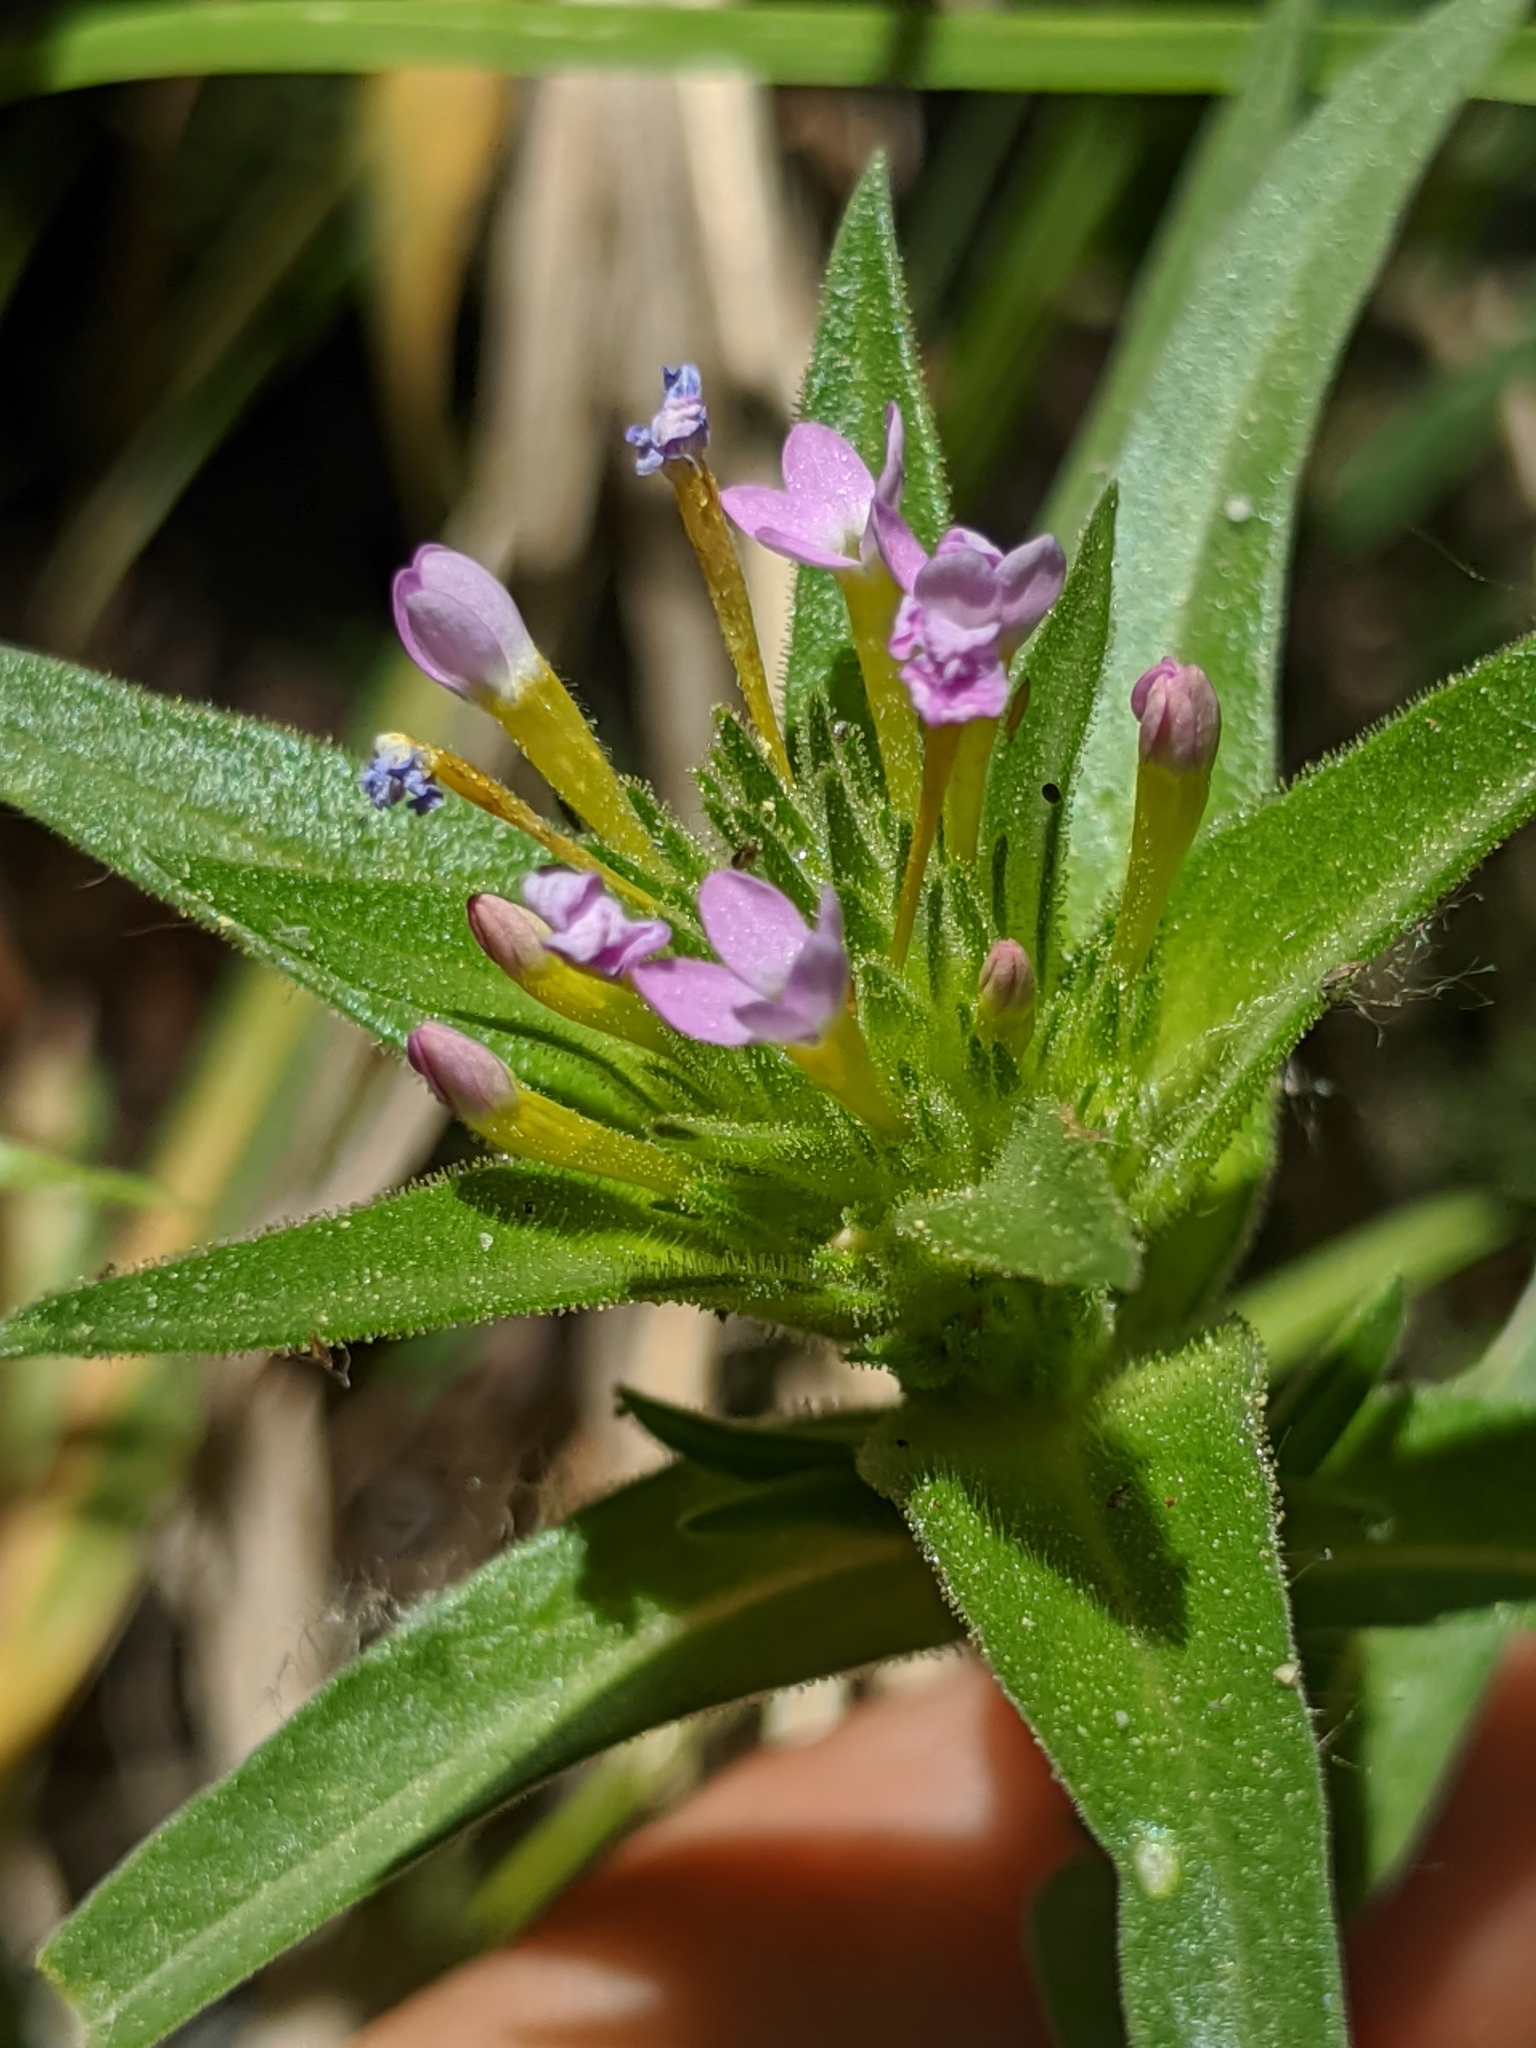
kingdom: Plantae
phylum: Tracheophyta
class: Magnoliopsida
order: Ericales
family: Polemoniaceae
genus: Collomia
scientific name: Collomia linearis
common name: Tiny trumpet
